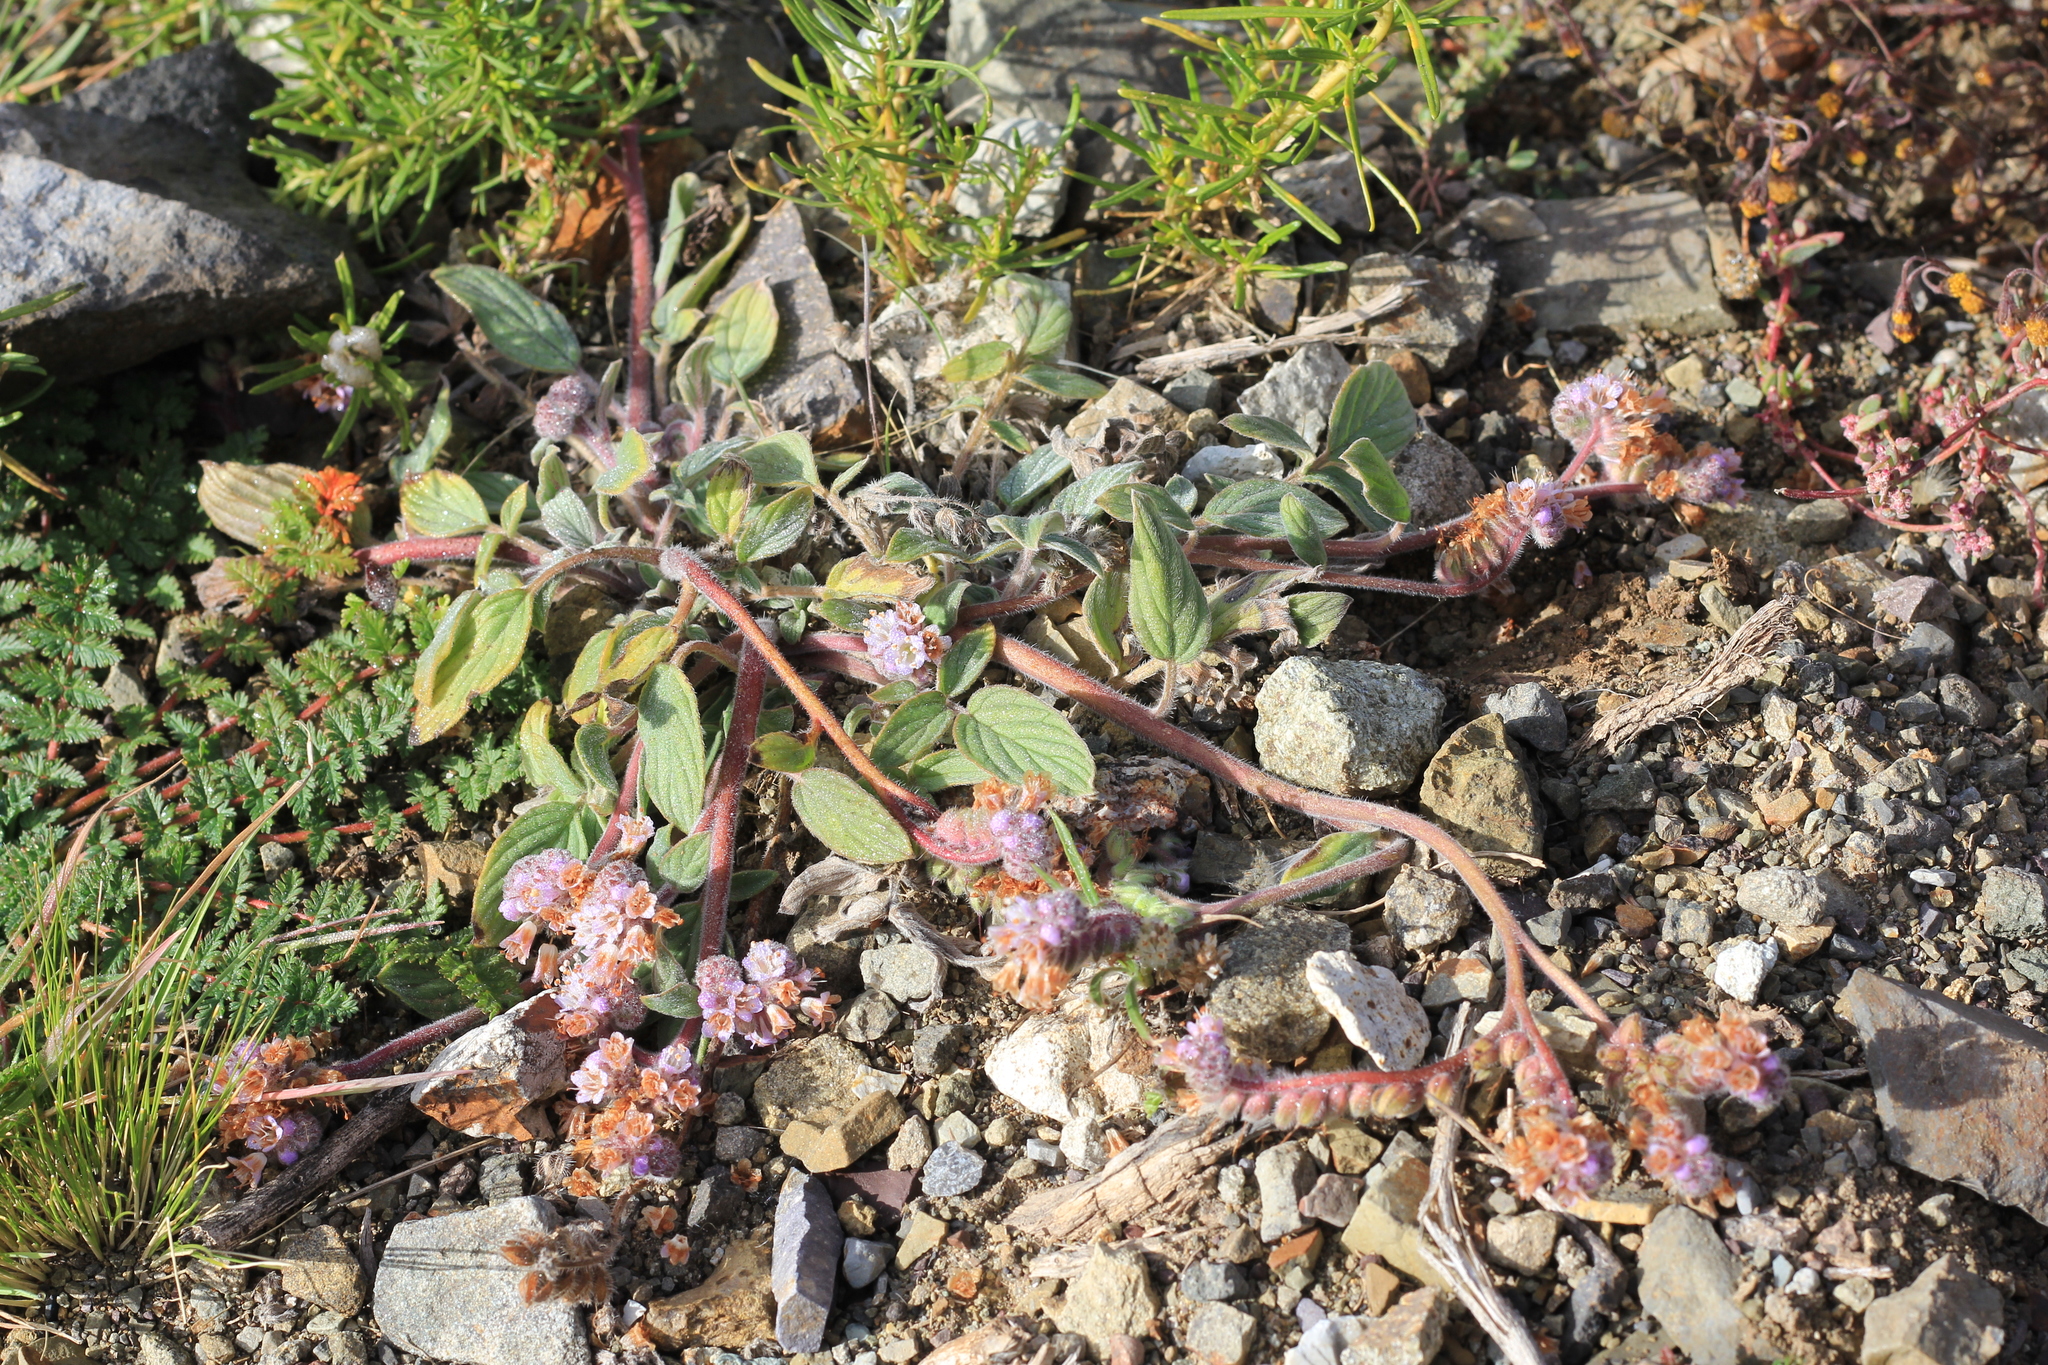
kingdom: Plantae
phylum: Tracheophyta
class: Magnoliopsida
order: Boraginales
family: Hydrophyllaceae
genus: Phacelia
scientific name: Phacelia secunda
